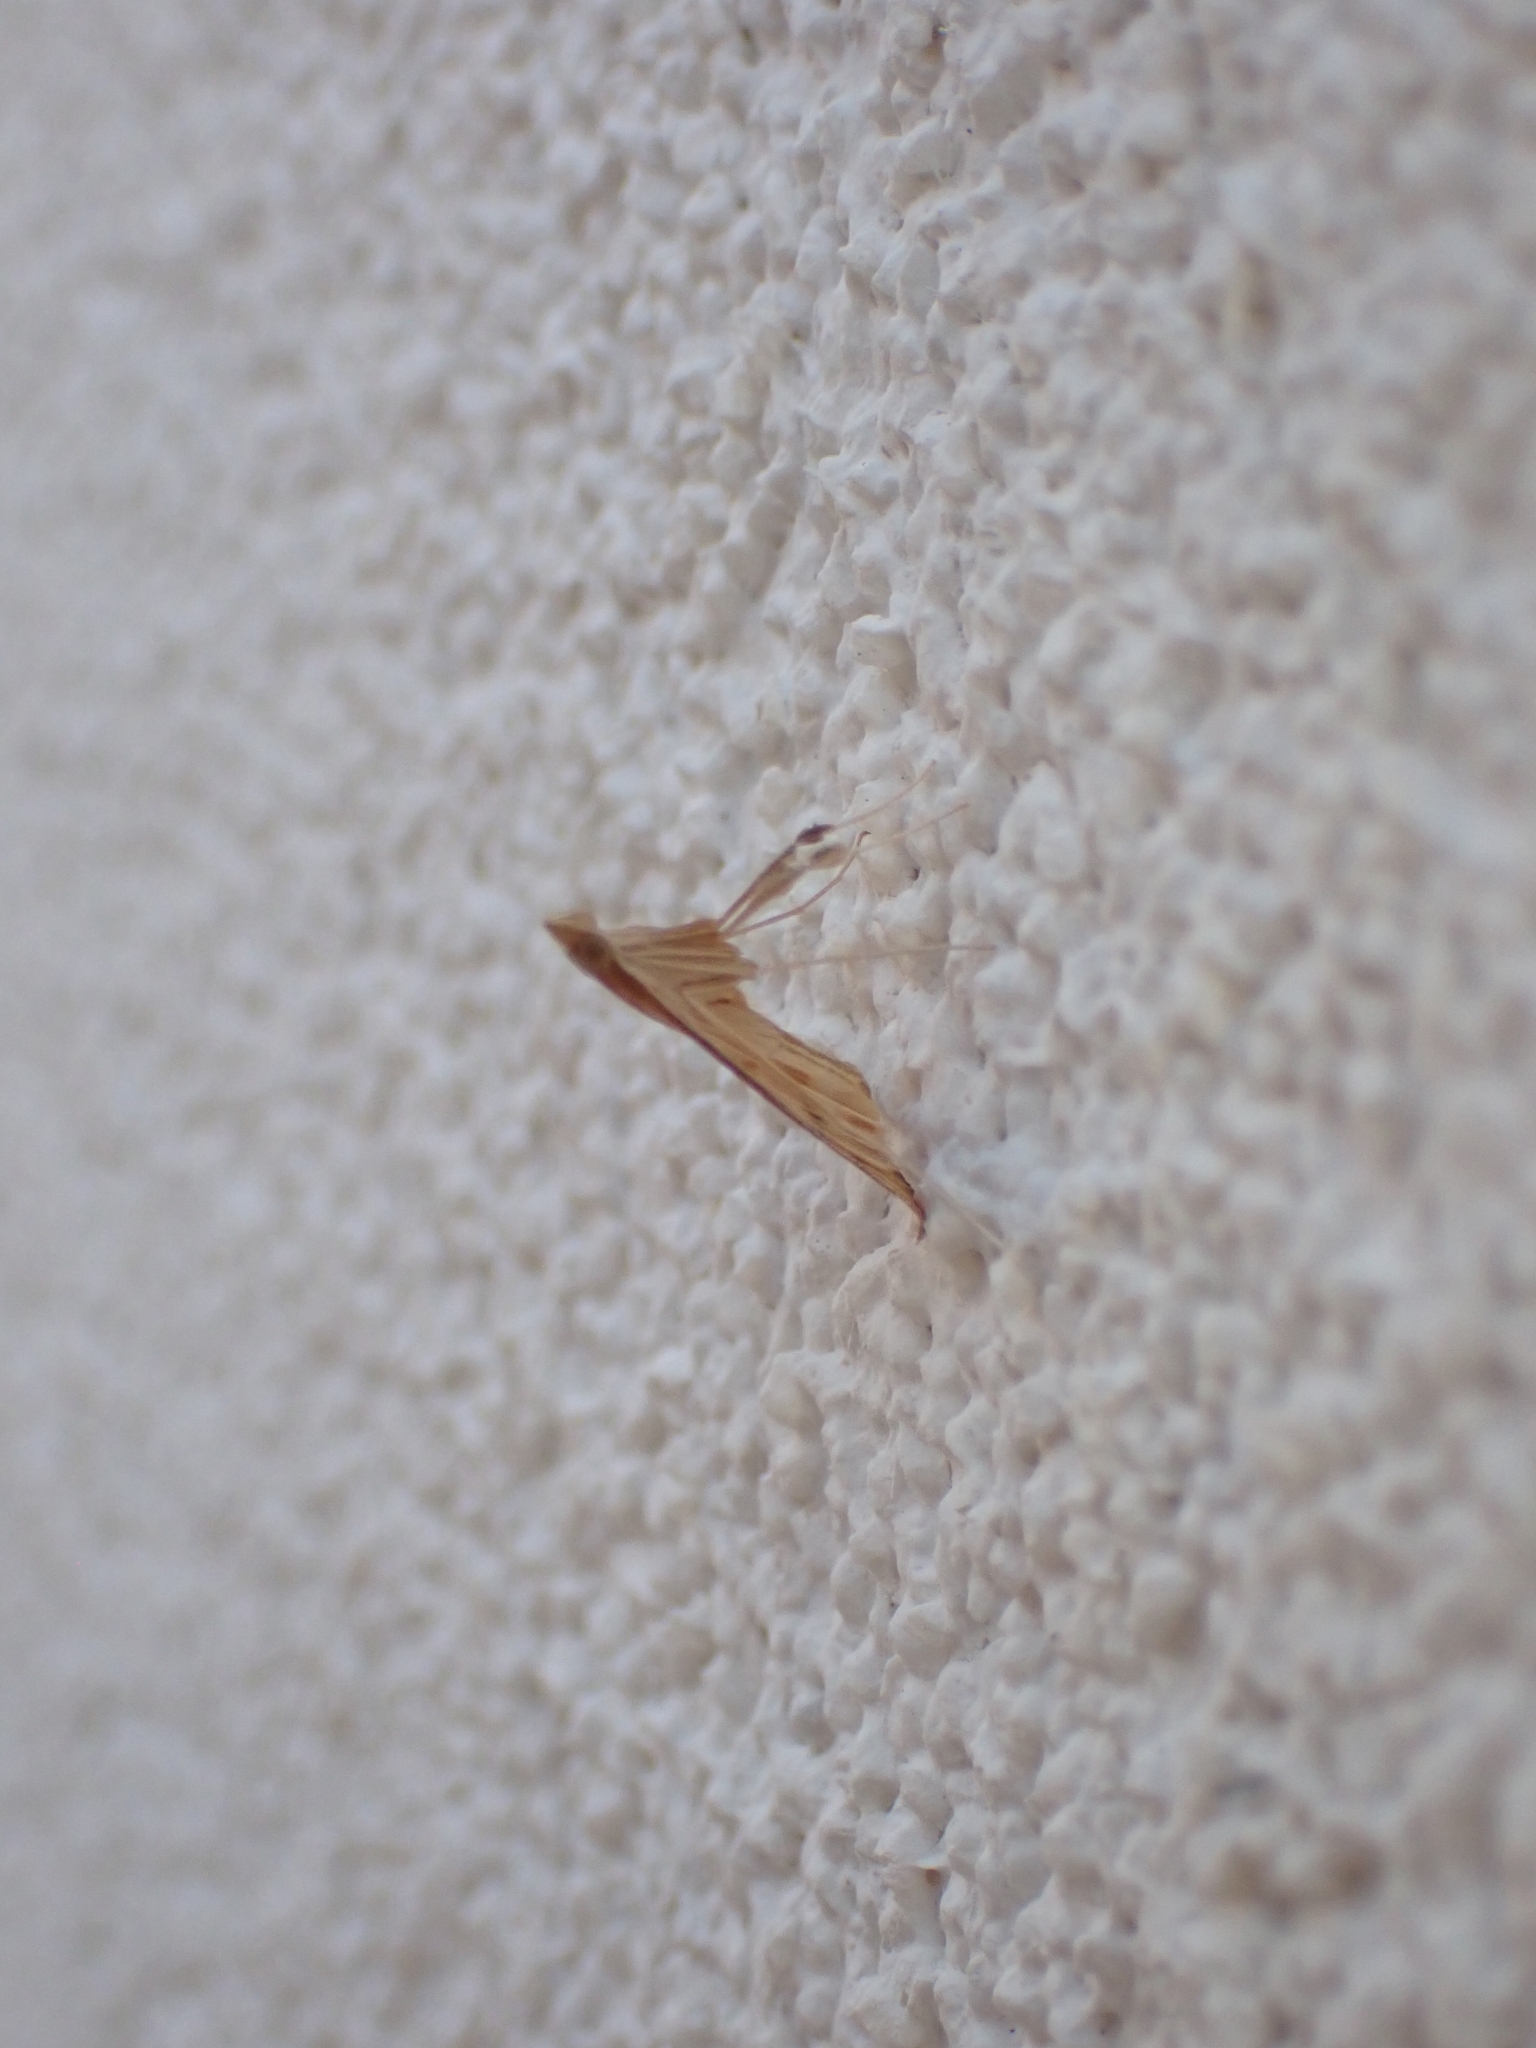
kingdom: Animalia
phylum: Arthropoda
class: Insecta
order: Lepidoptera
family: Crambidae
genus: Antigastra
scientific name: Antigastra catalaunalis
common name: Spanish dot
